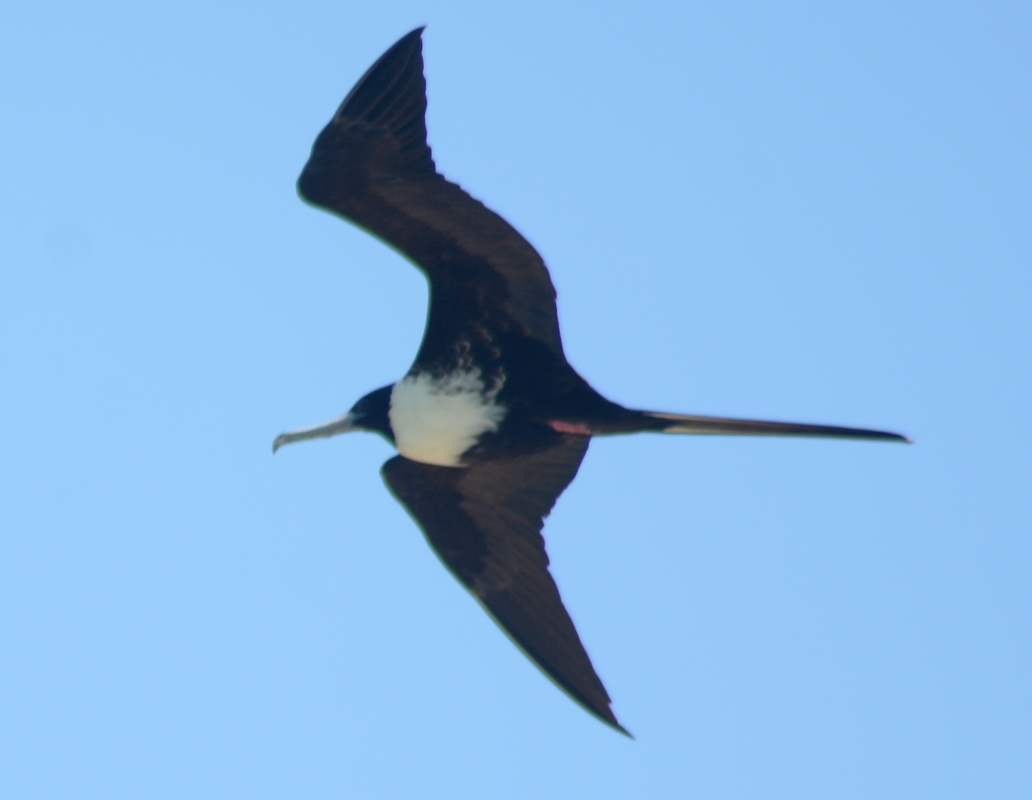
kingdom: Animalia
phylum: Chordata
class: Aves
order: Suliformes
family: Fregatidae
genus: Fregata
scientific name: Fregata magnificens
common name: Magnificent frigatebird
